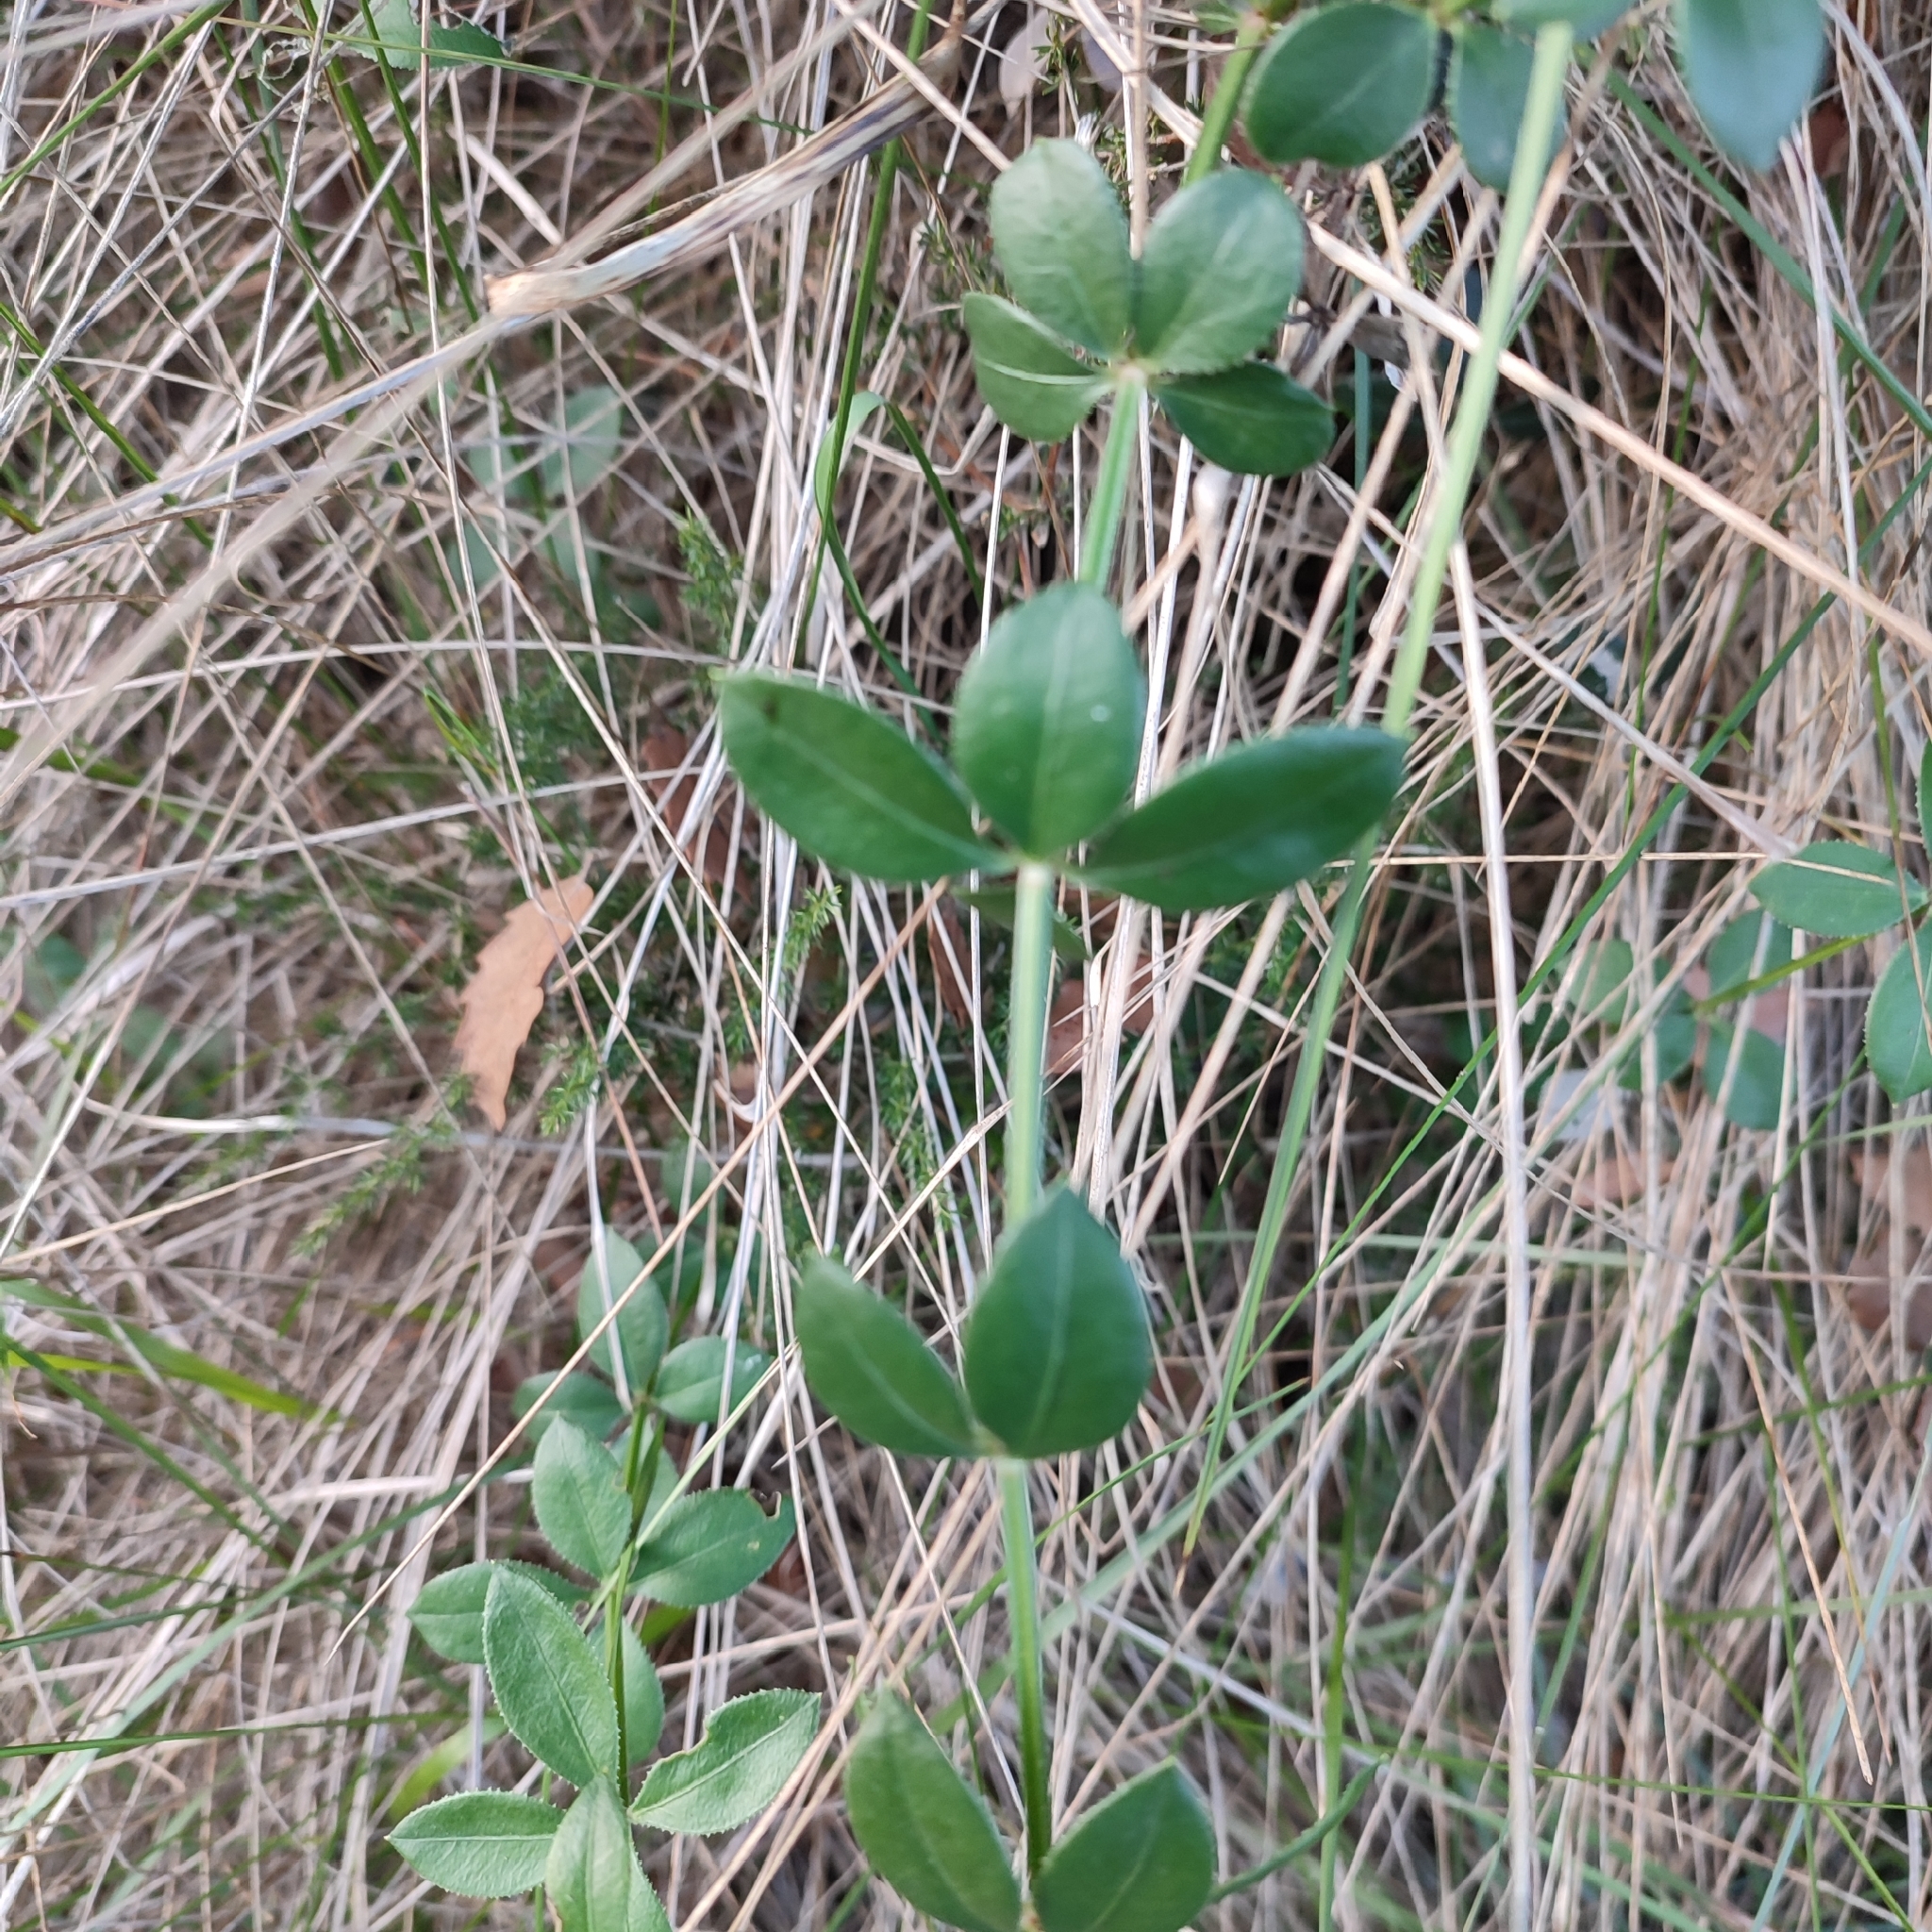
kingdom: Plantae
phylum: Tracheophyta
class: Magnoliopsida
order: Gentianales
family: Rubiaceae
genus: Rubia
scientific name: Rubia peregrina
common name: Wild madder
